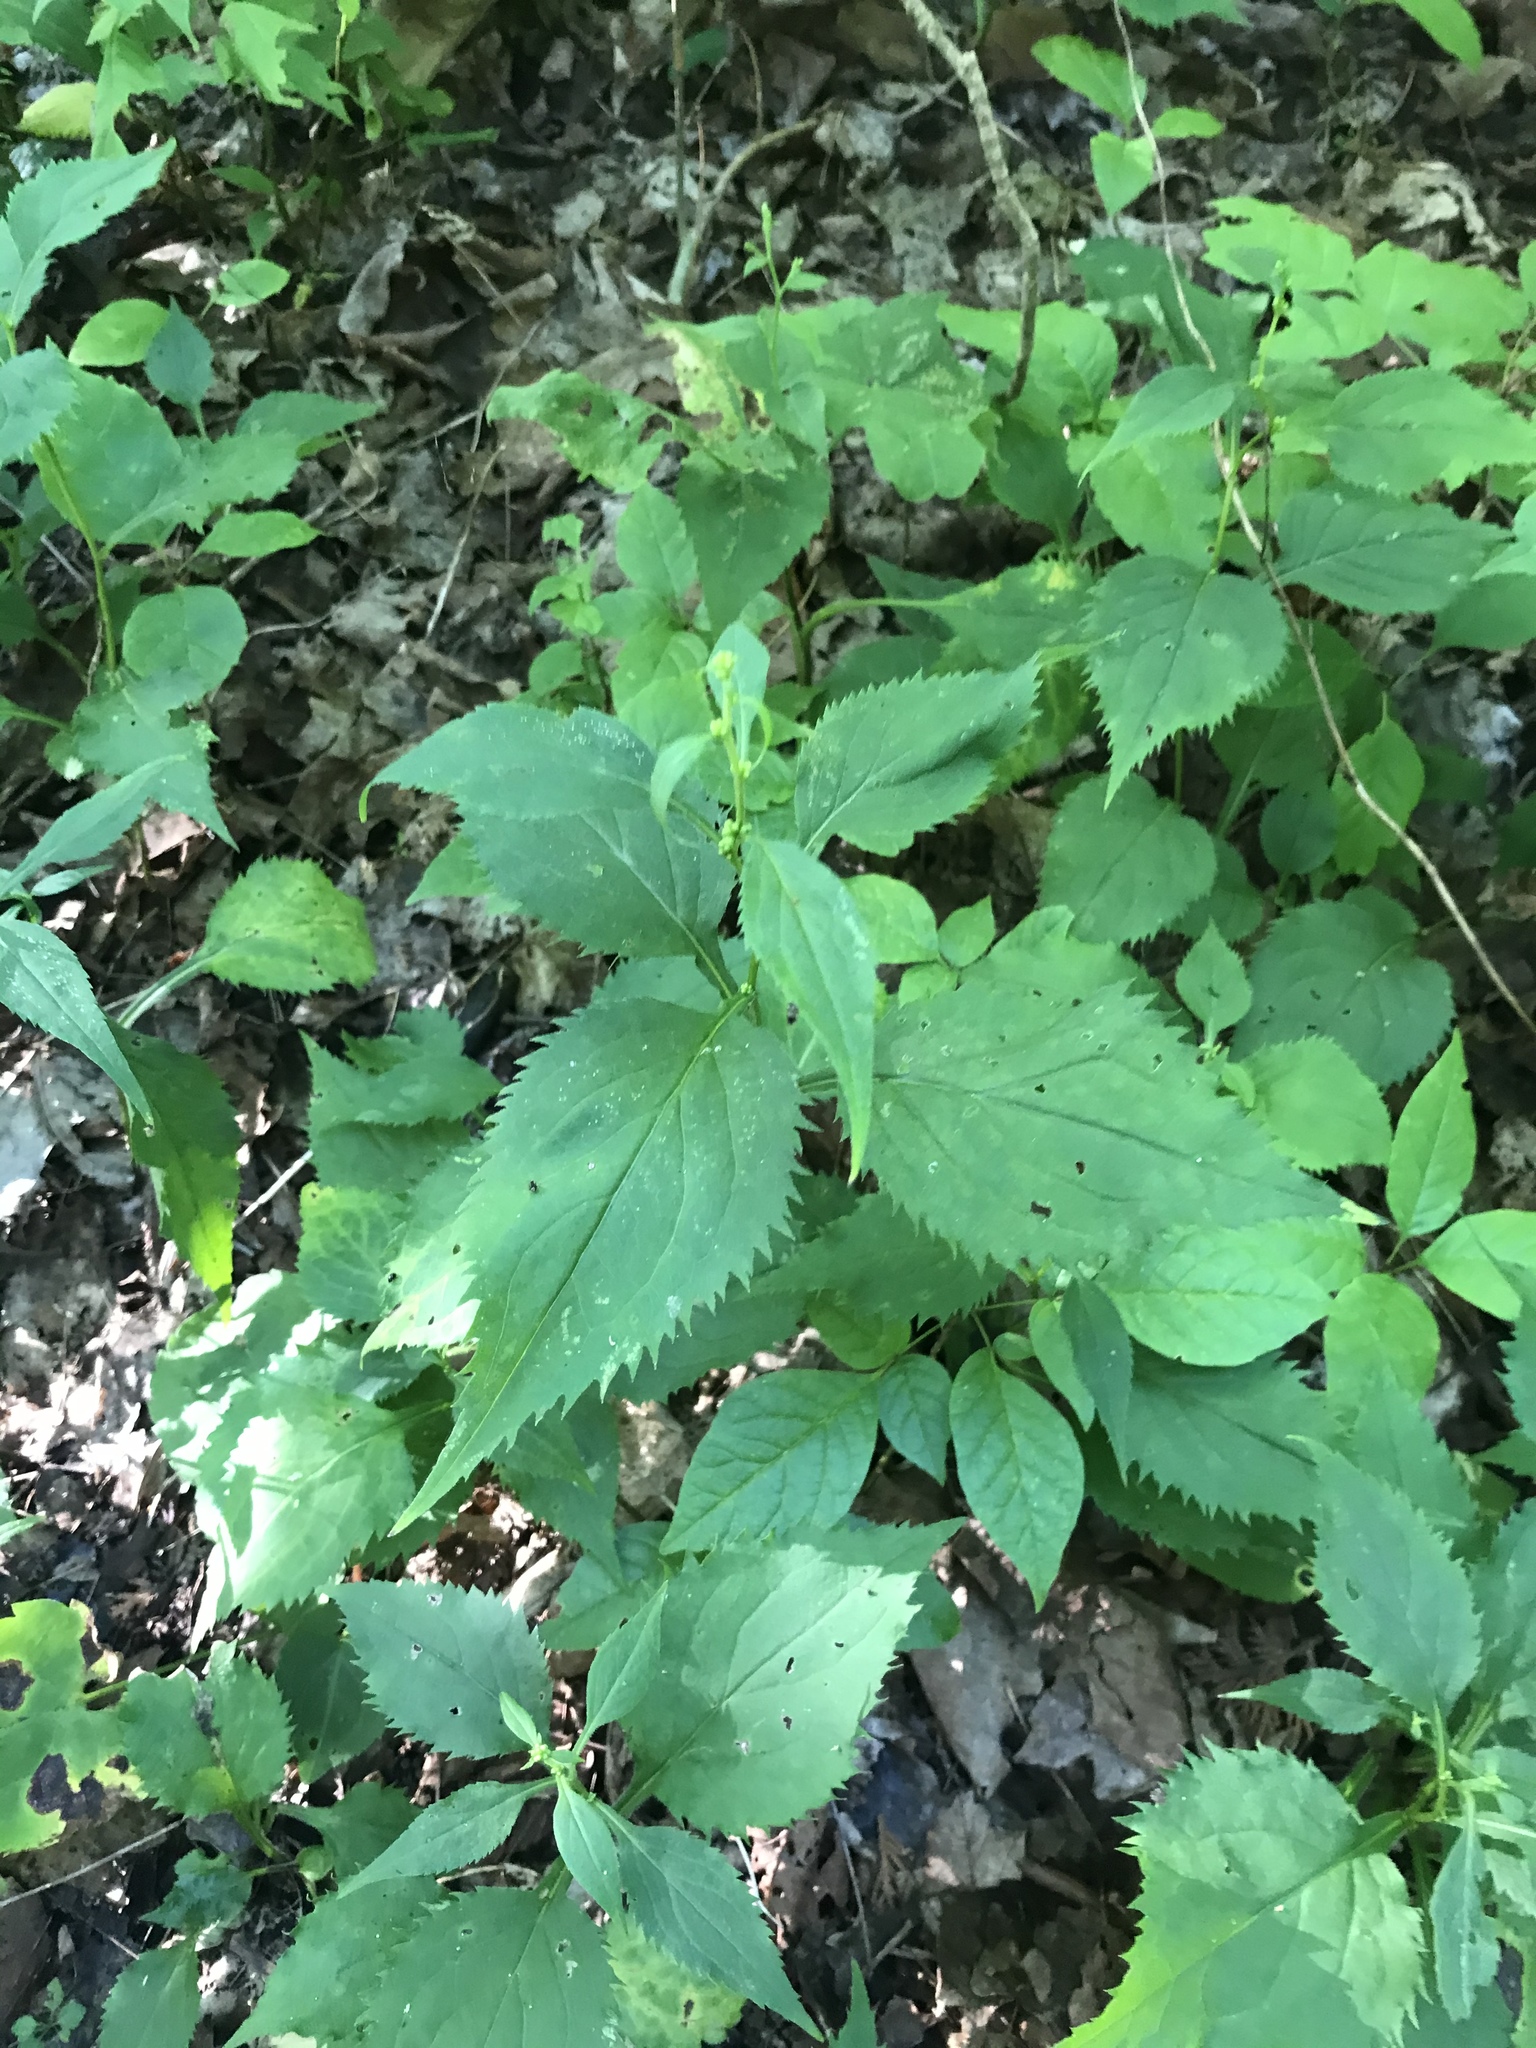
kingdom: Plantae
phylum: Tracheophyta
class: Magnoliopsida
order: Asterales
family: Asteraceae
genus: Solidago
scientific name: Solidago flexicaulis
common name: Zig-zag goldenrod
